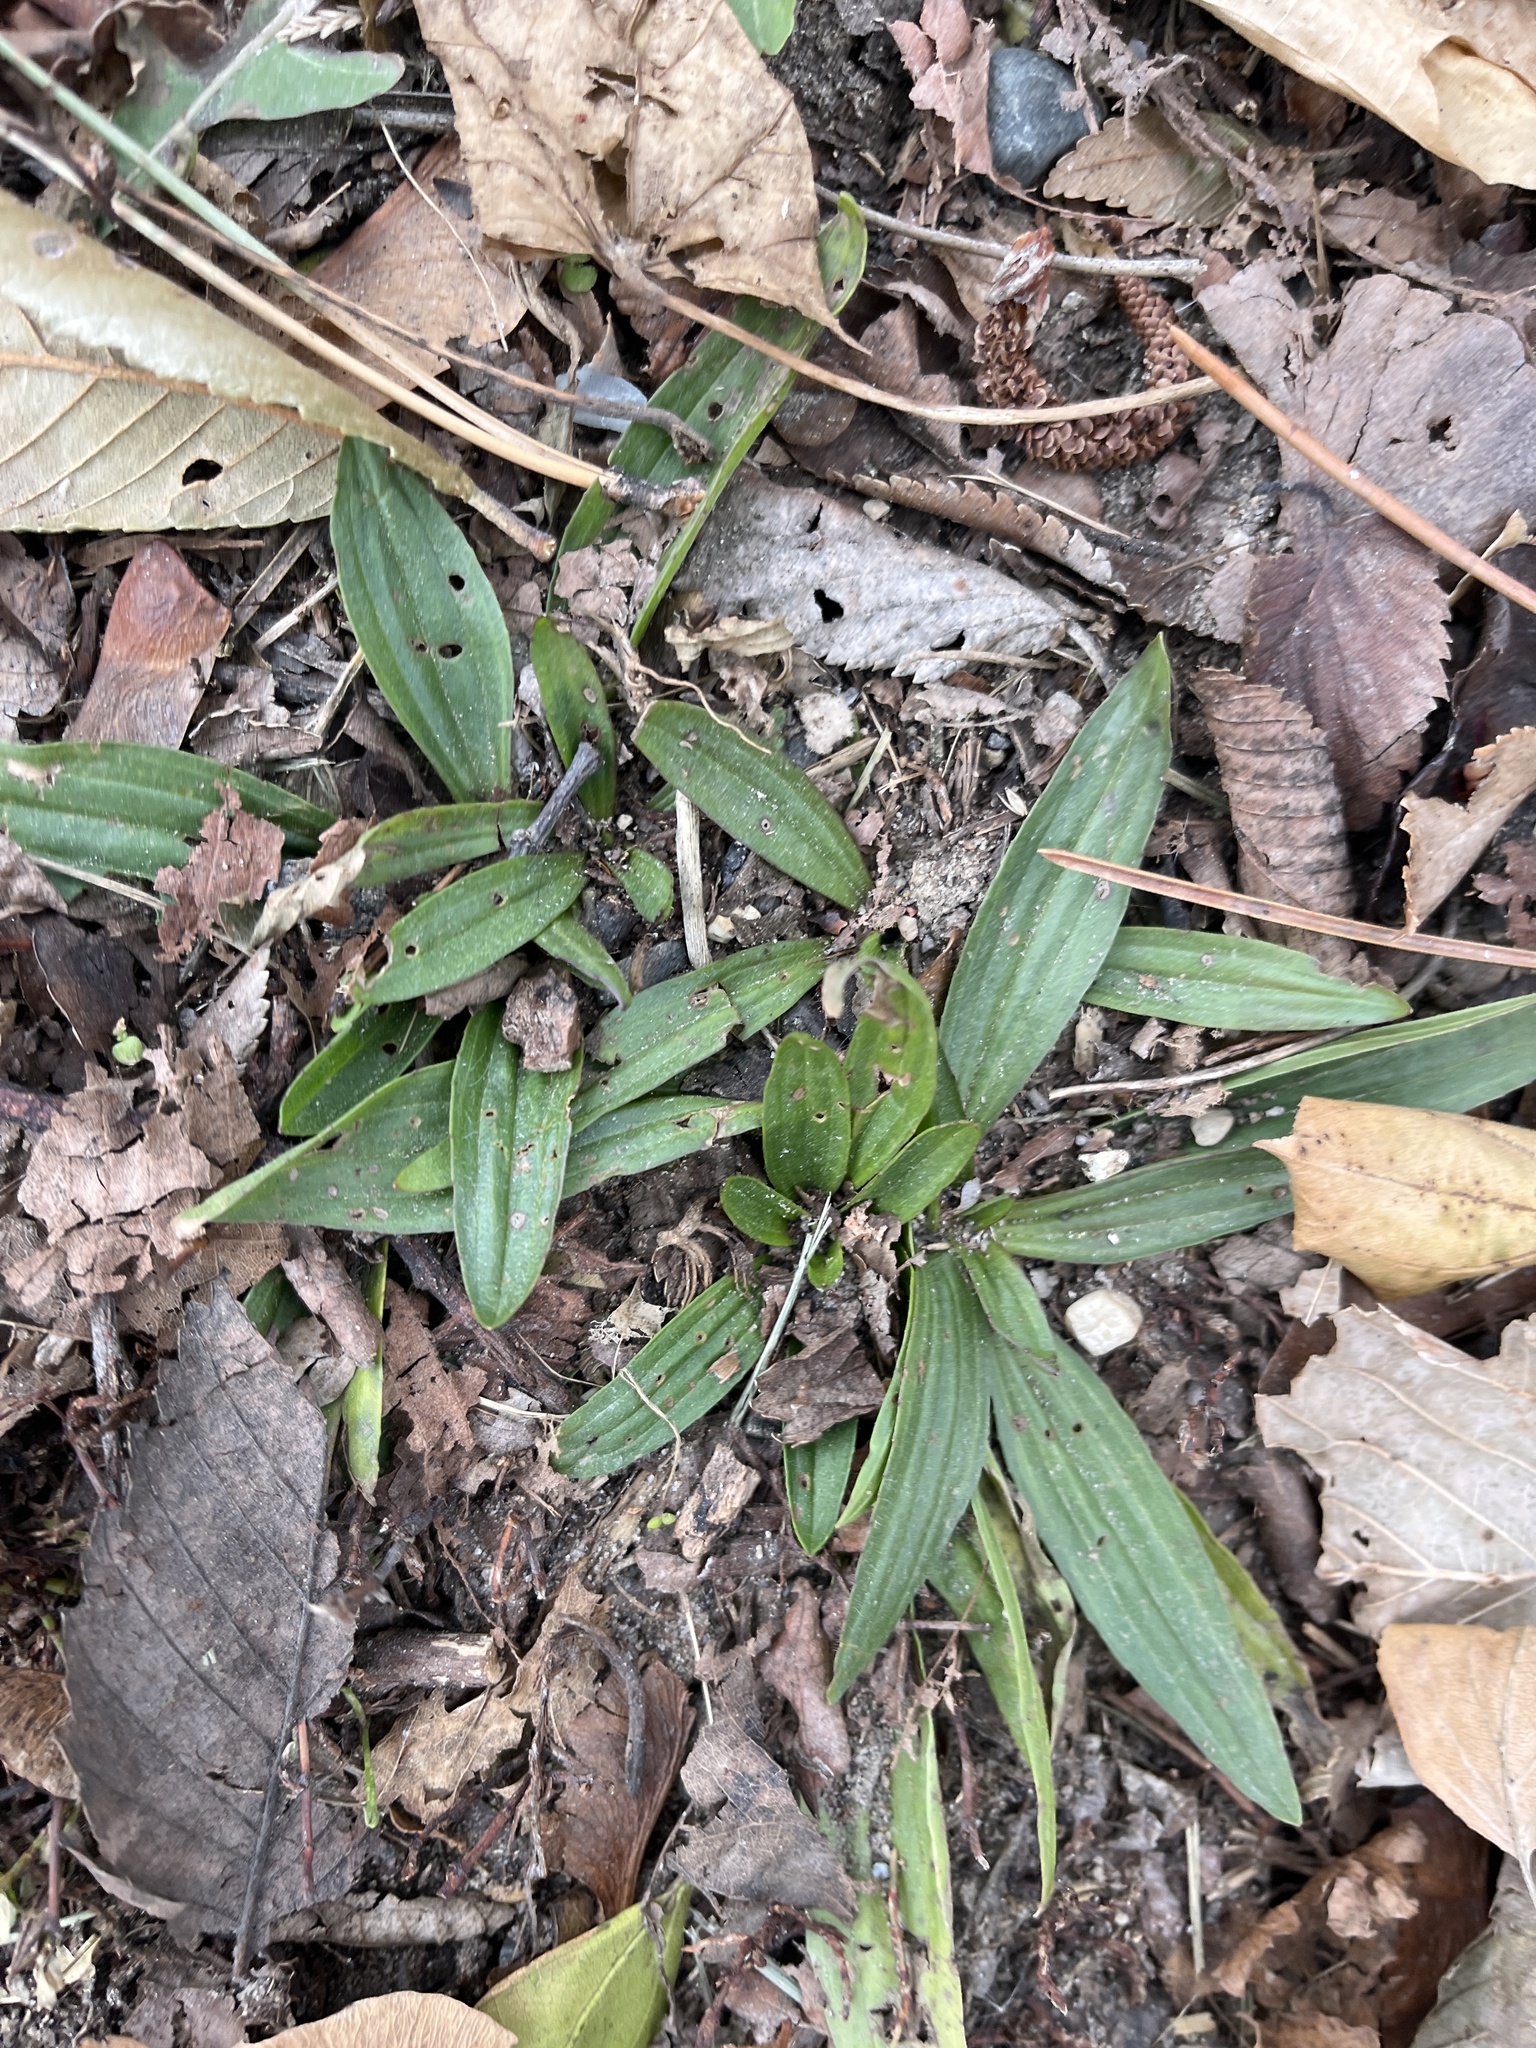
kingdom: Plantae
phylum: Tracheophyta
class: Magnoliopsida
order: Lamiales
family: Plantaginaceae
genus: Plantago
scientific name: Plantago lanceolata
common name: Ribwort plantain
